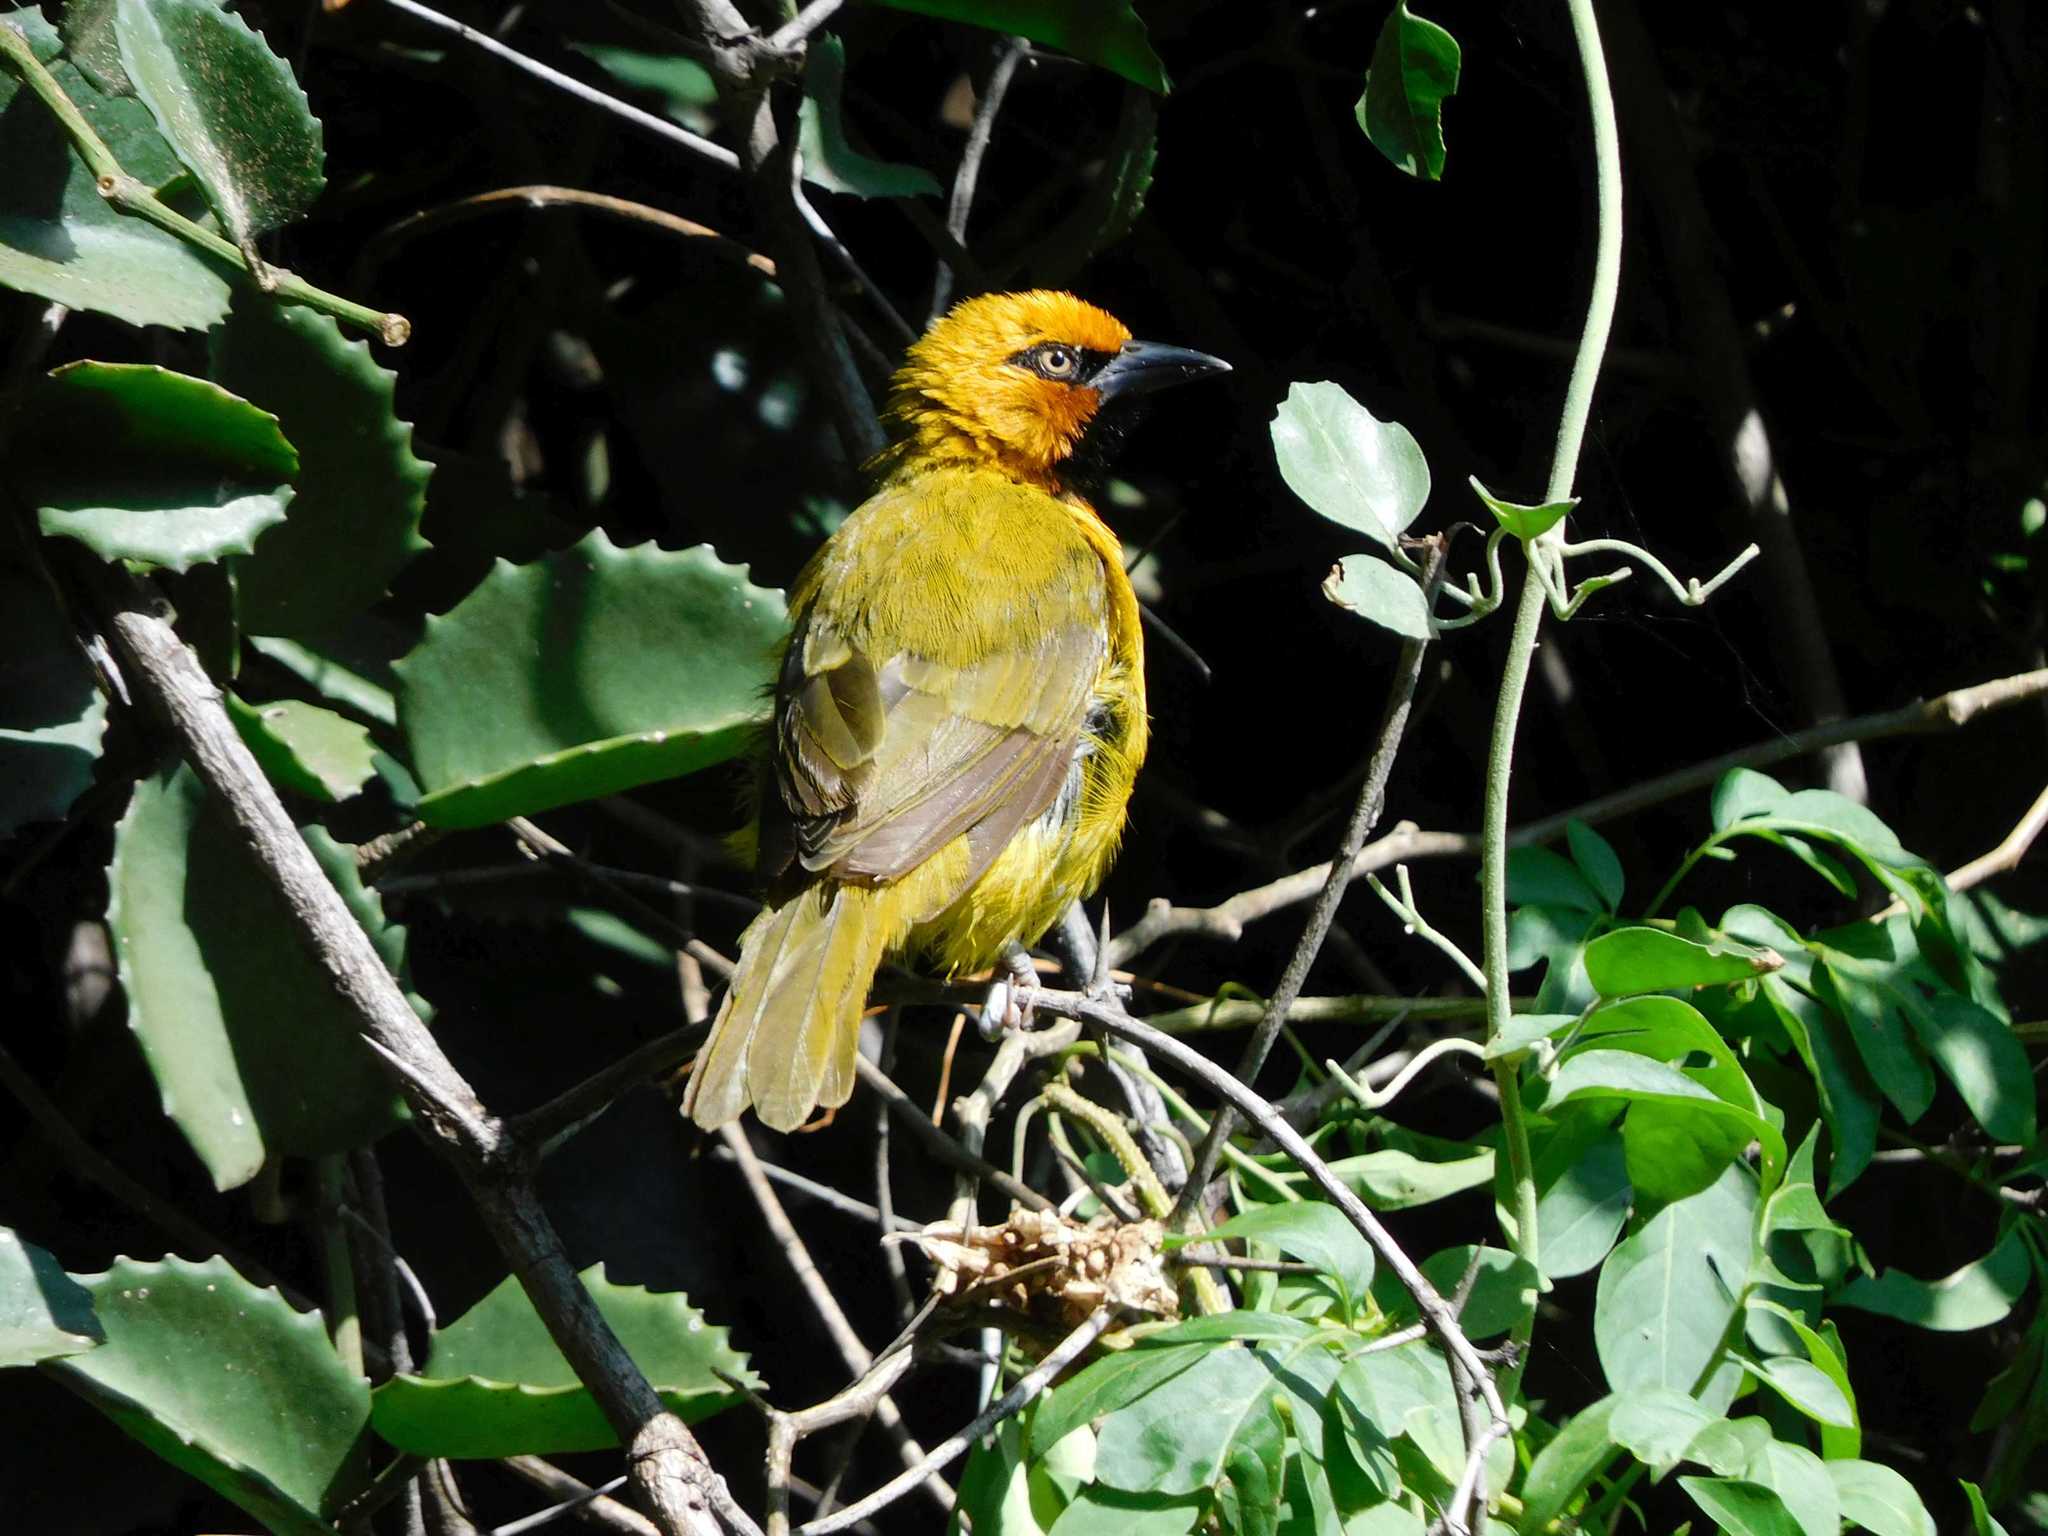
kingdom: Animalia
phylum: Chordata
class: Aves
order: Passeriformes
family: Ploceidae
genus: Ploceus
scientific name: Ploceus ocularis
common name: Spectacled weaver
